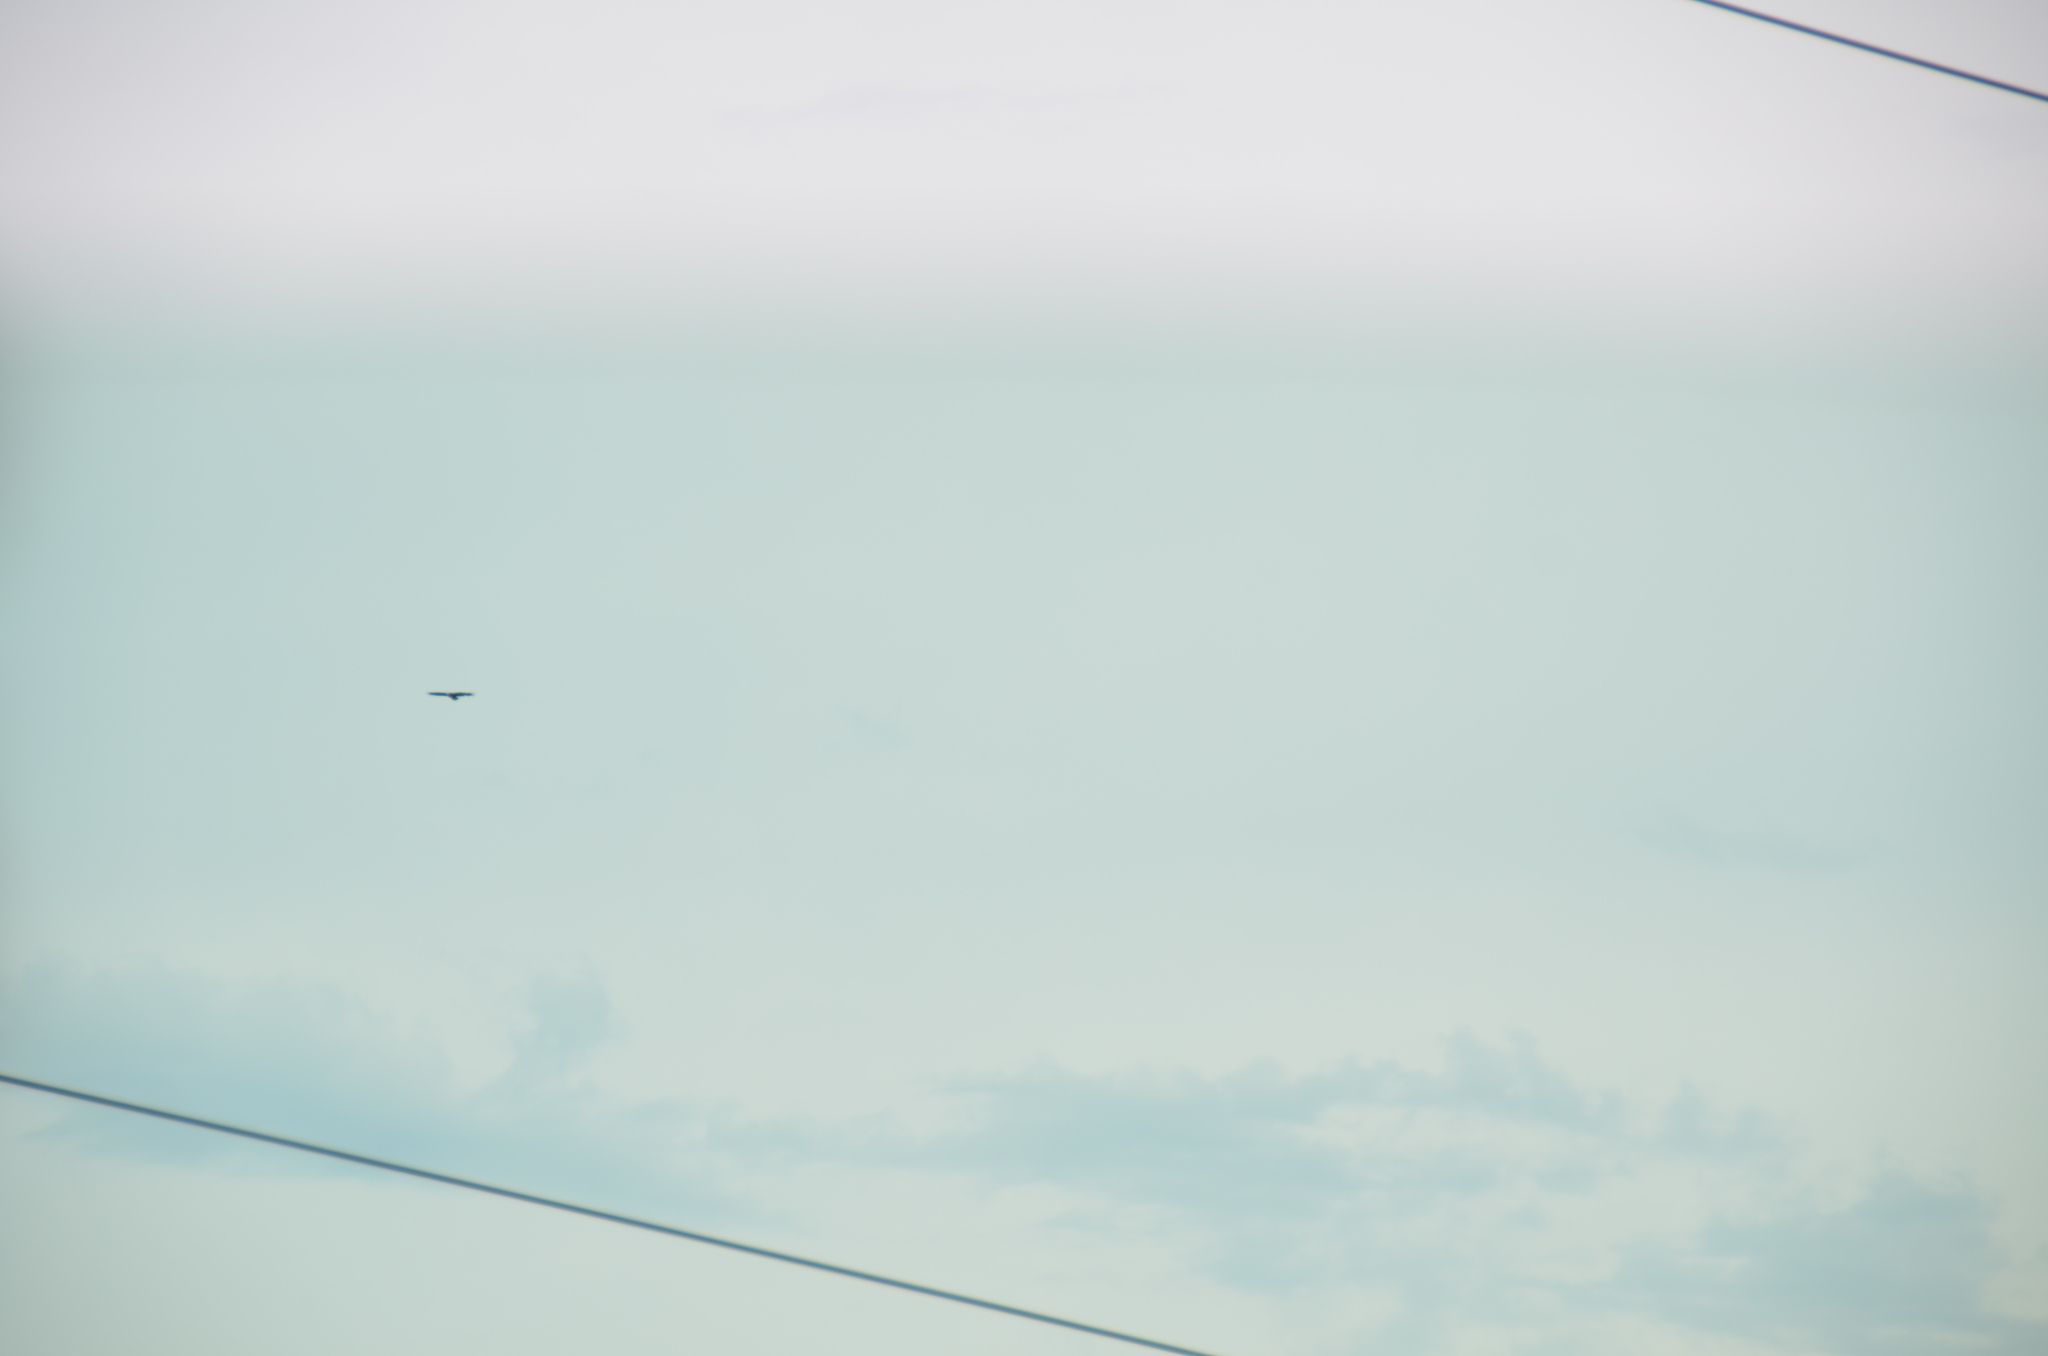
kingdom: Animalia
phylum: Chordata
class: Aves
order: Accipitriformes
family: Cathartidae
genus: Cathartes
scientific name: Cathartes aura
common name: Turkey vulture
